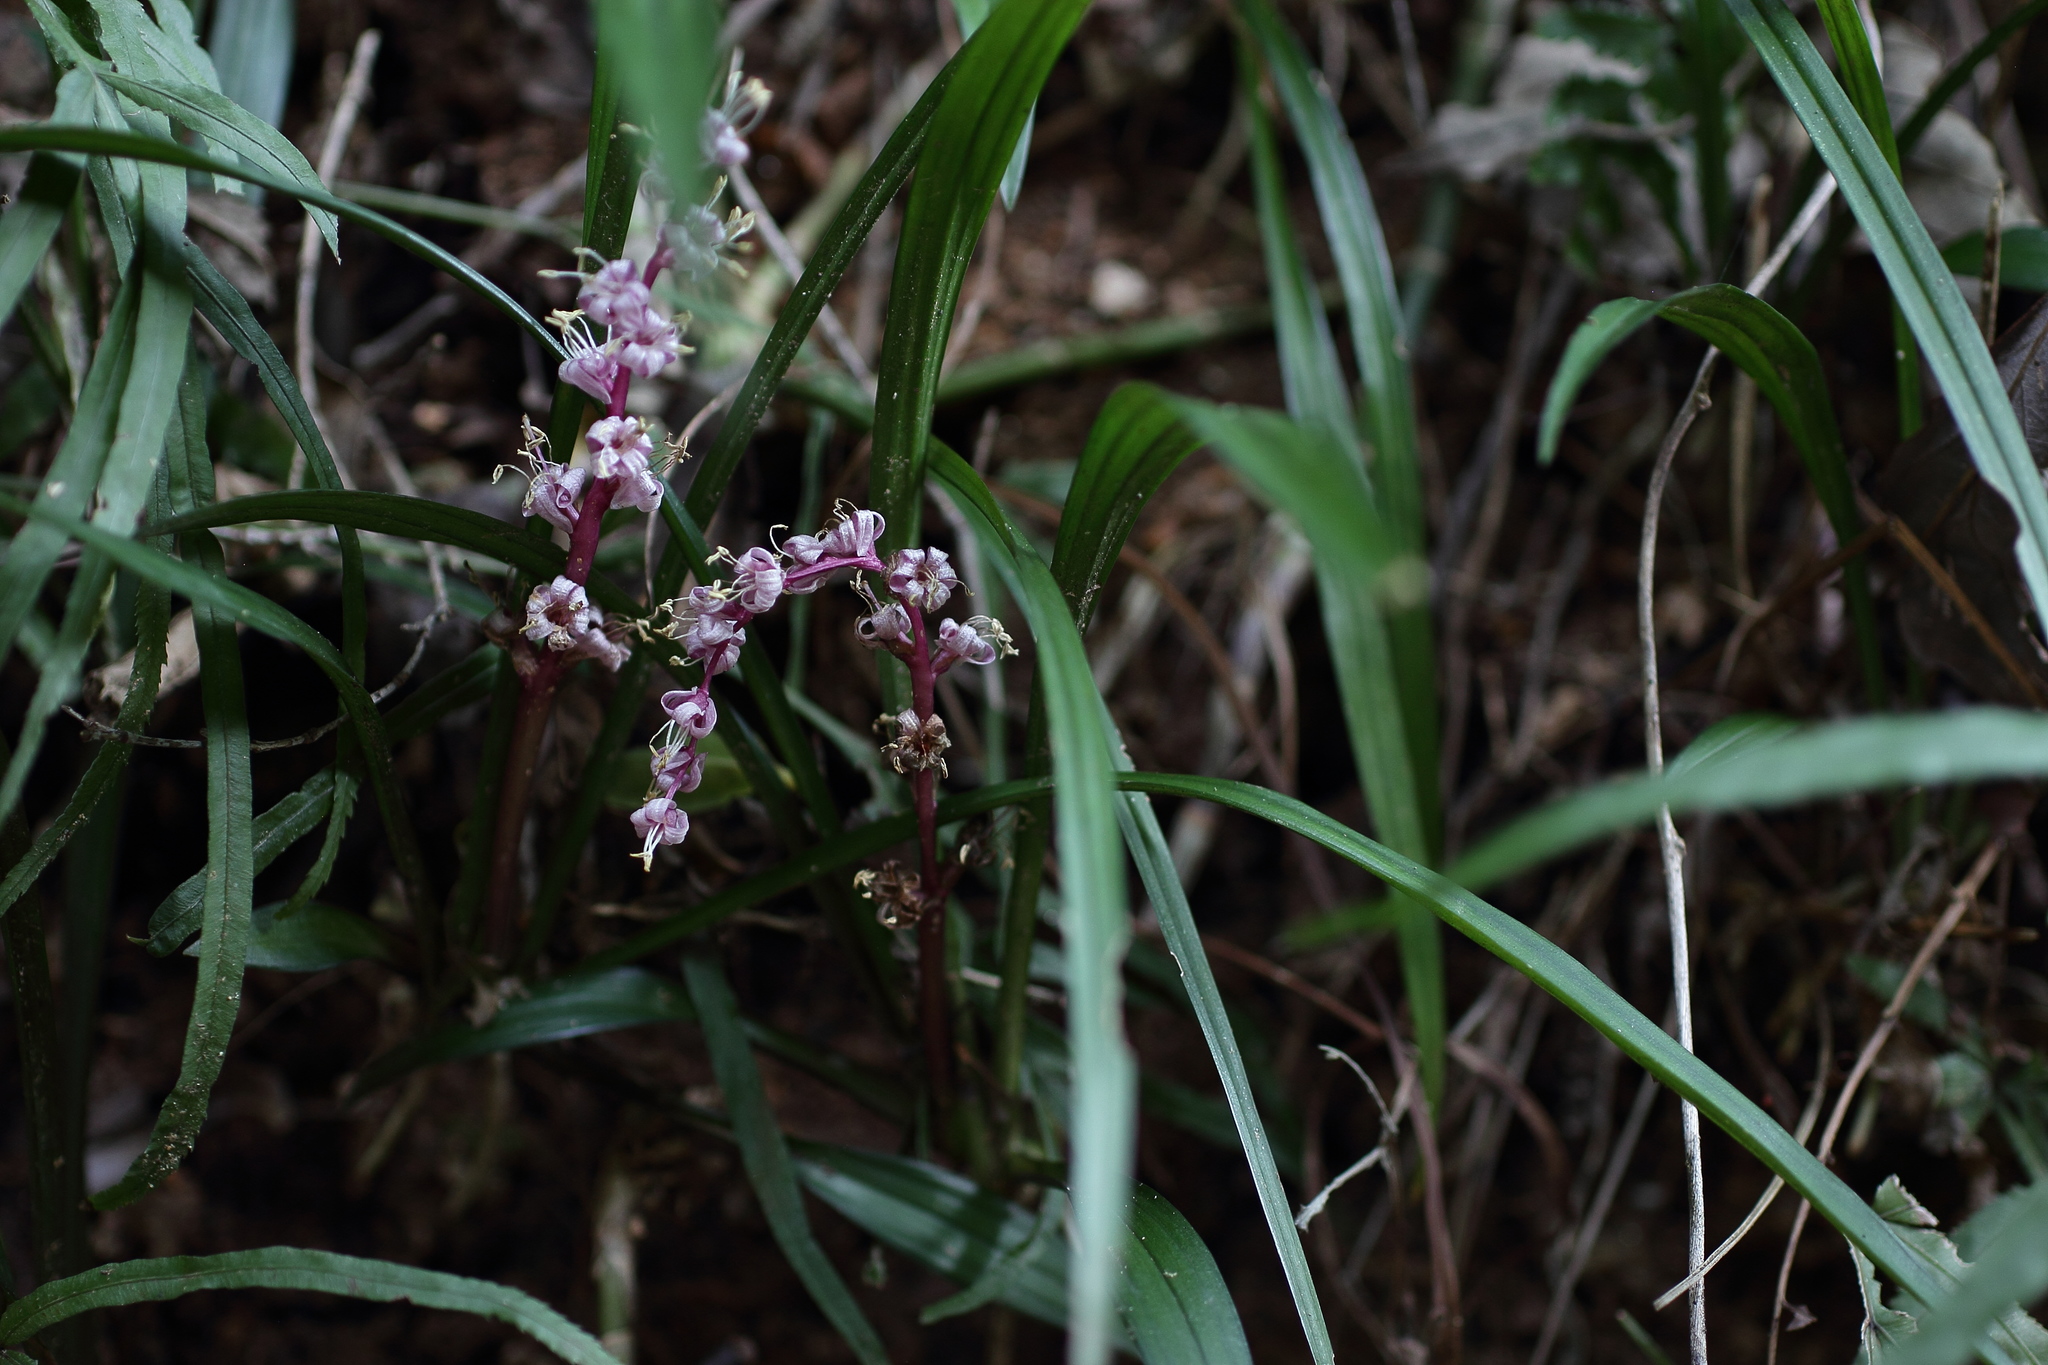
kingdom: Plantae
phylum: Tracheophyta
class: Liliopsida
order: Asparagales
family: Asparagaceae
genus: Liriope
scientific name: Liriope muscari
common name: Big blue lilyturf
